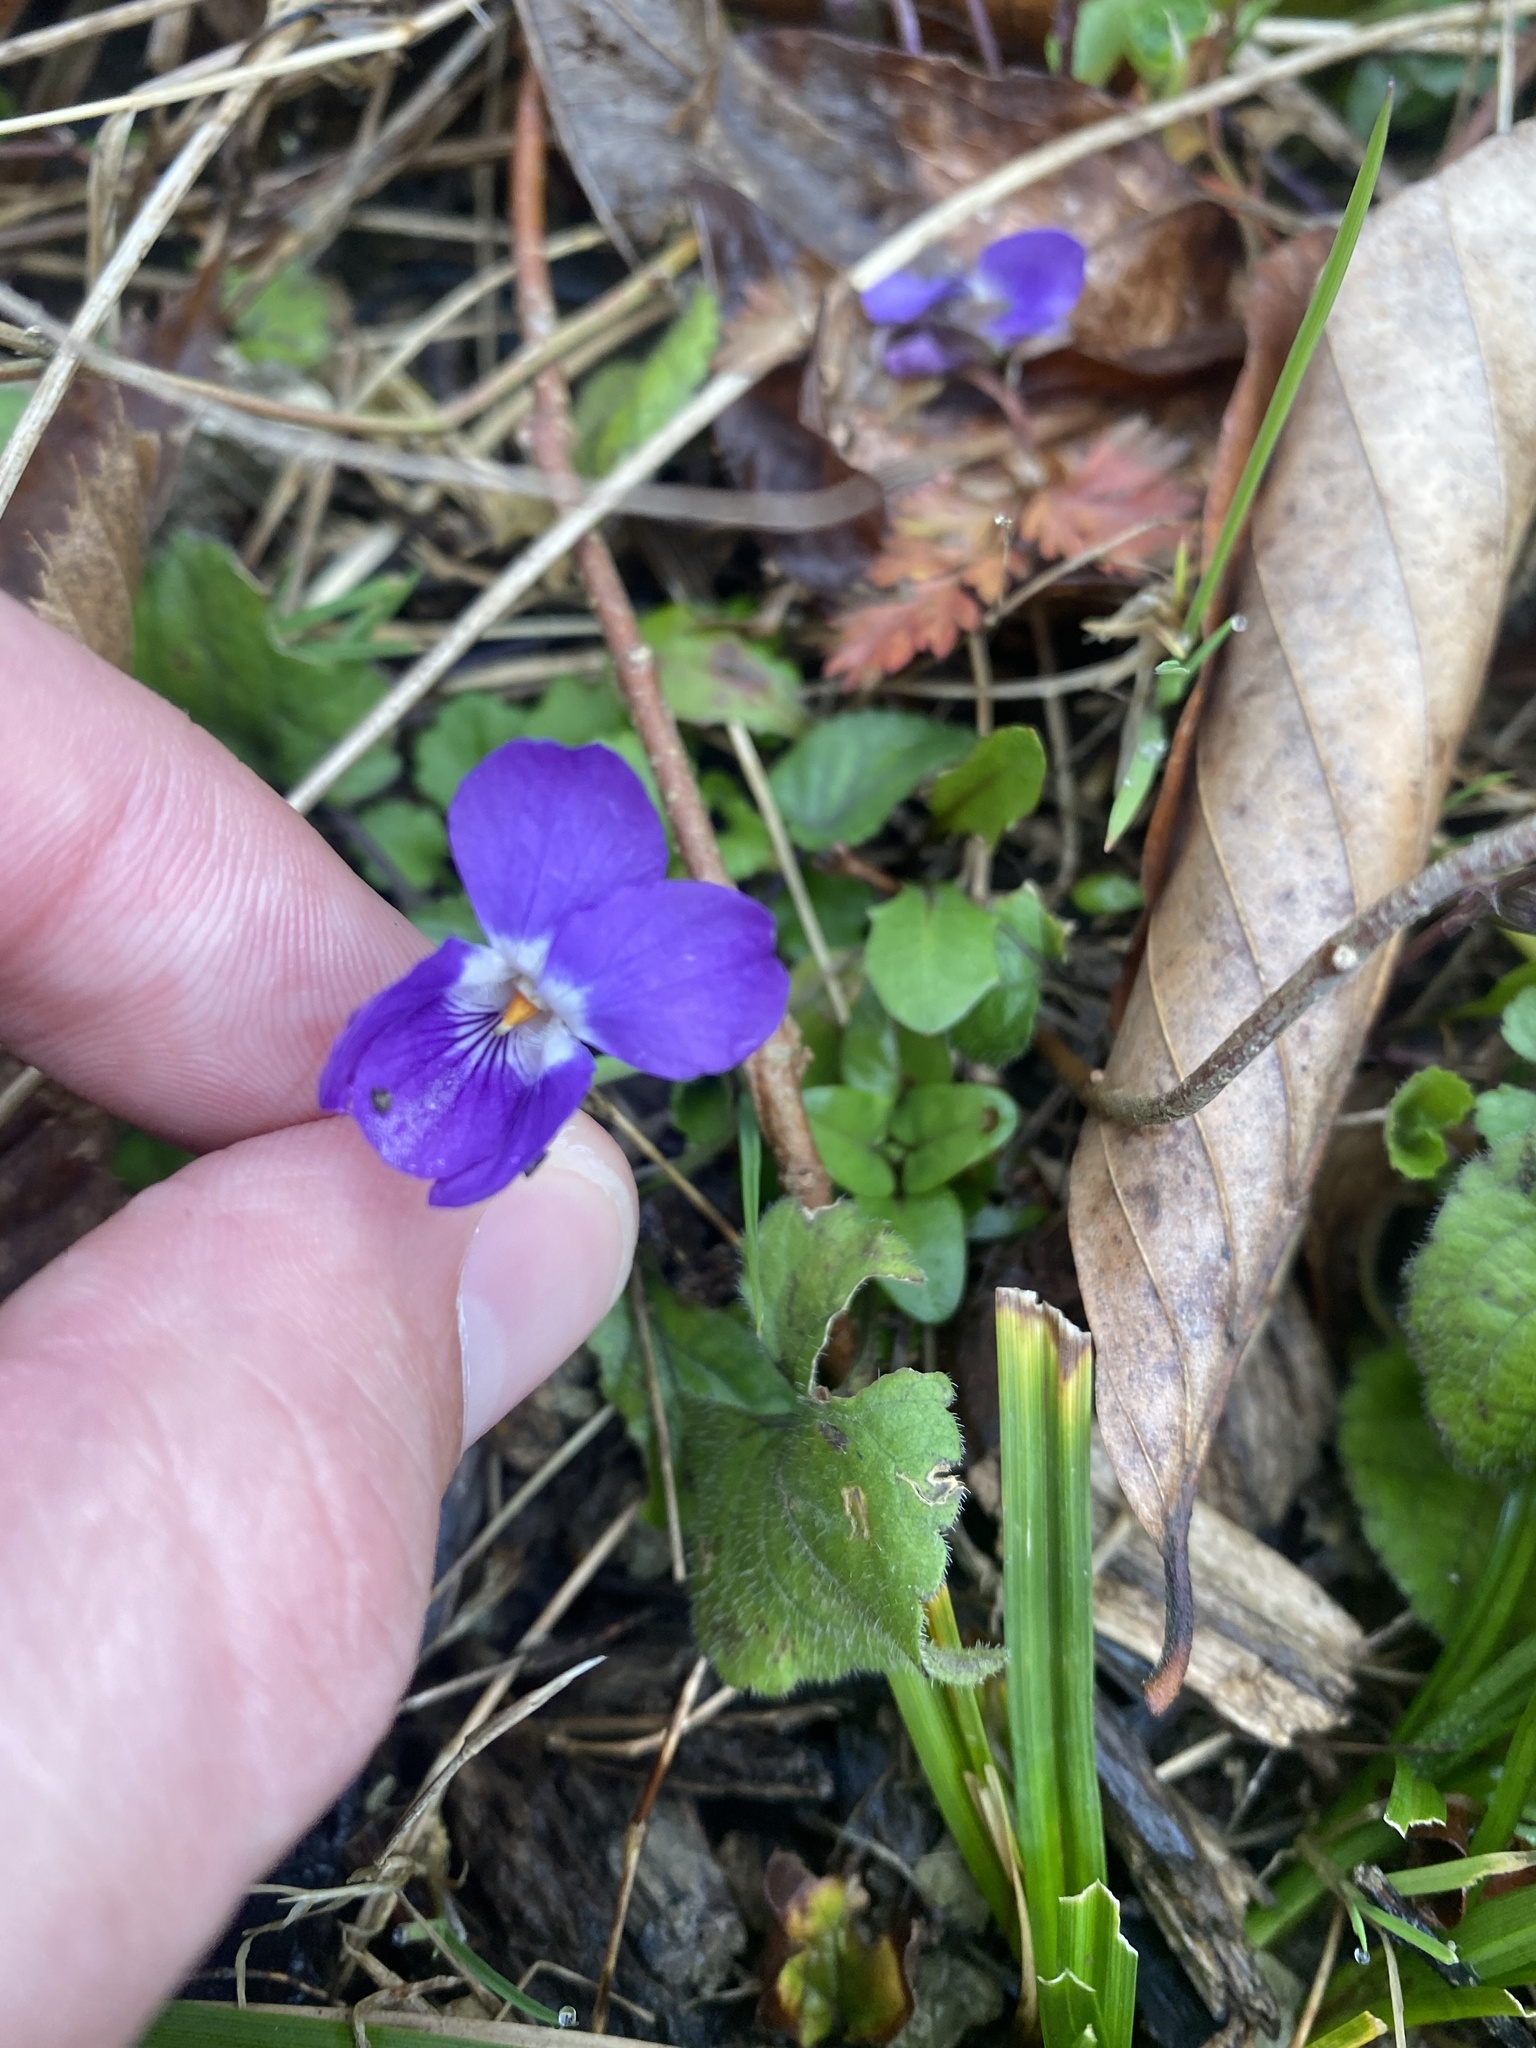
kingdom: Plantae
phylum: Tracheophyta
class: Magnoliopsida
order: Malpighiales
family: Violaceae
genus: Viola
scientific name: Viola alba
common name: White violet
